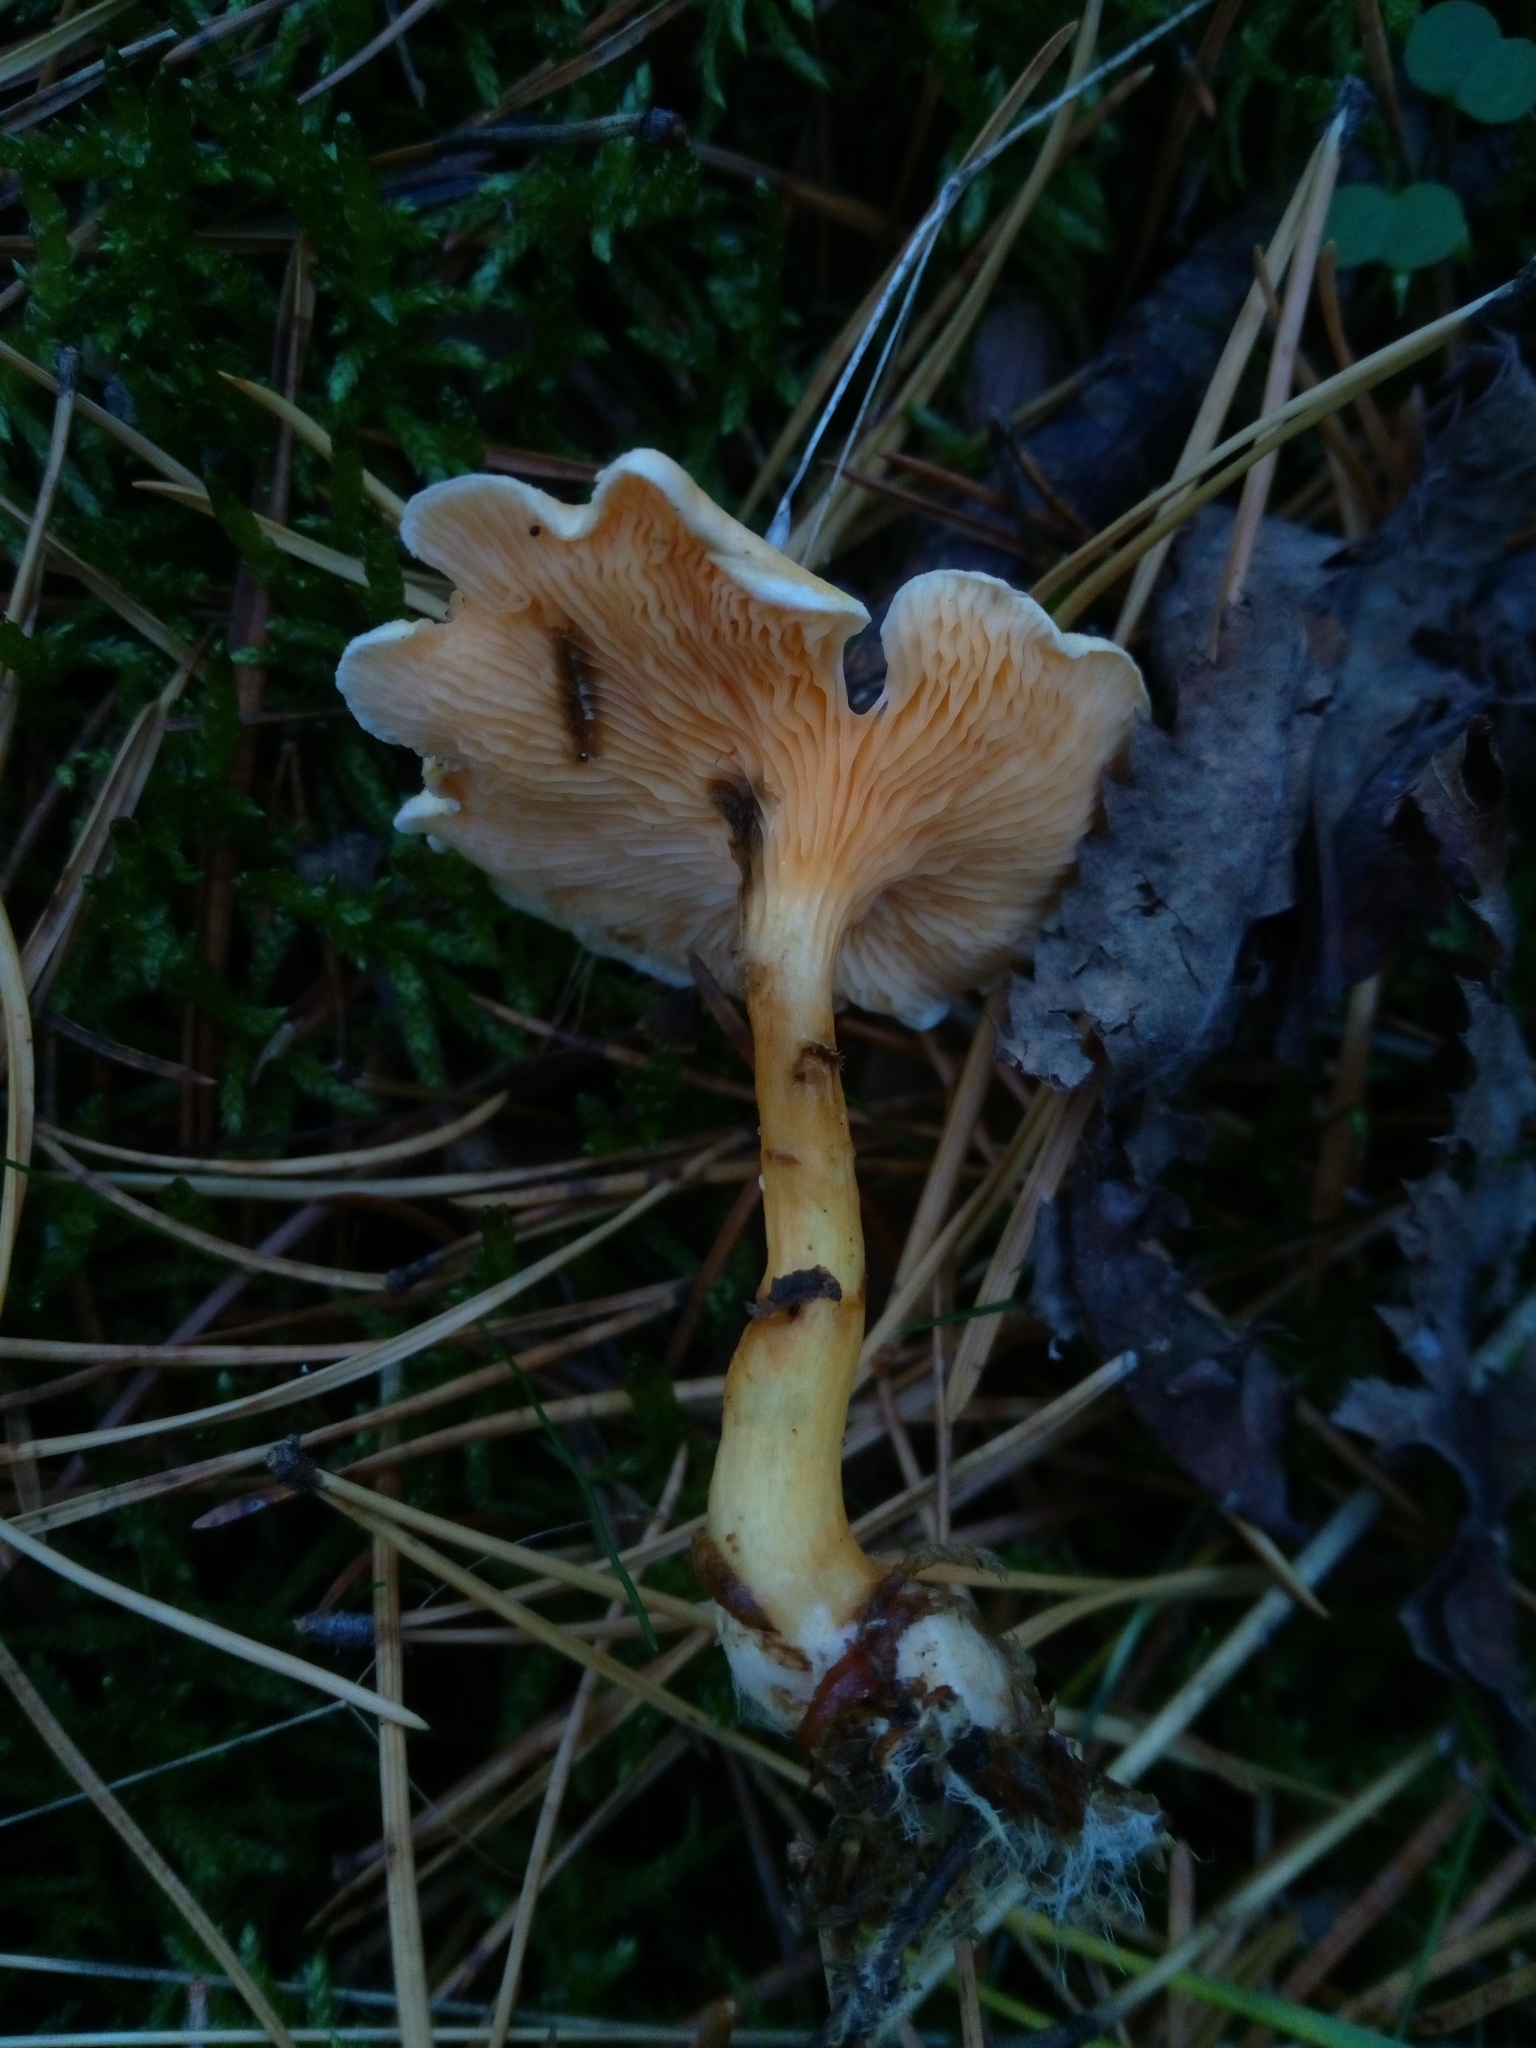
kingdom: Fungi
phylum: Basidiomycota
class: Agaricomycetes
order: Boletales
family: Hygrophoropsidaceae
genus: Hygrophoropsis
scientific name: Hygrophoropsis aurantiaca
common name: False chanterelle
